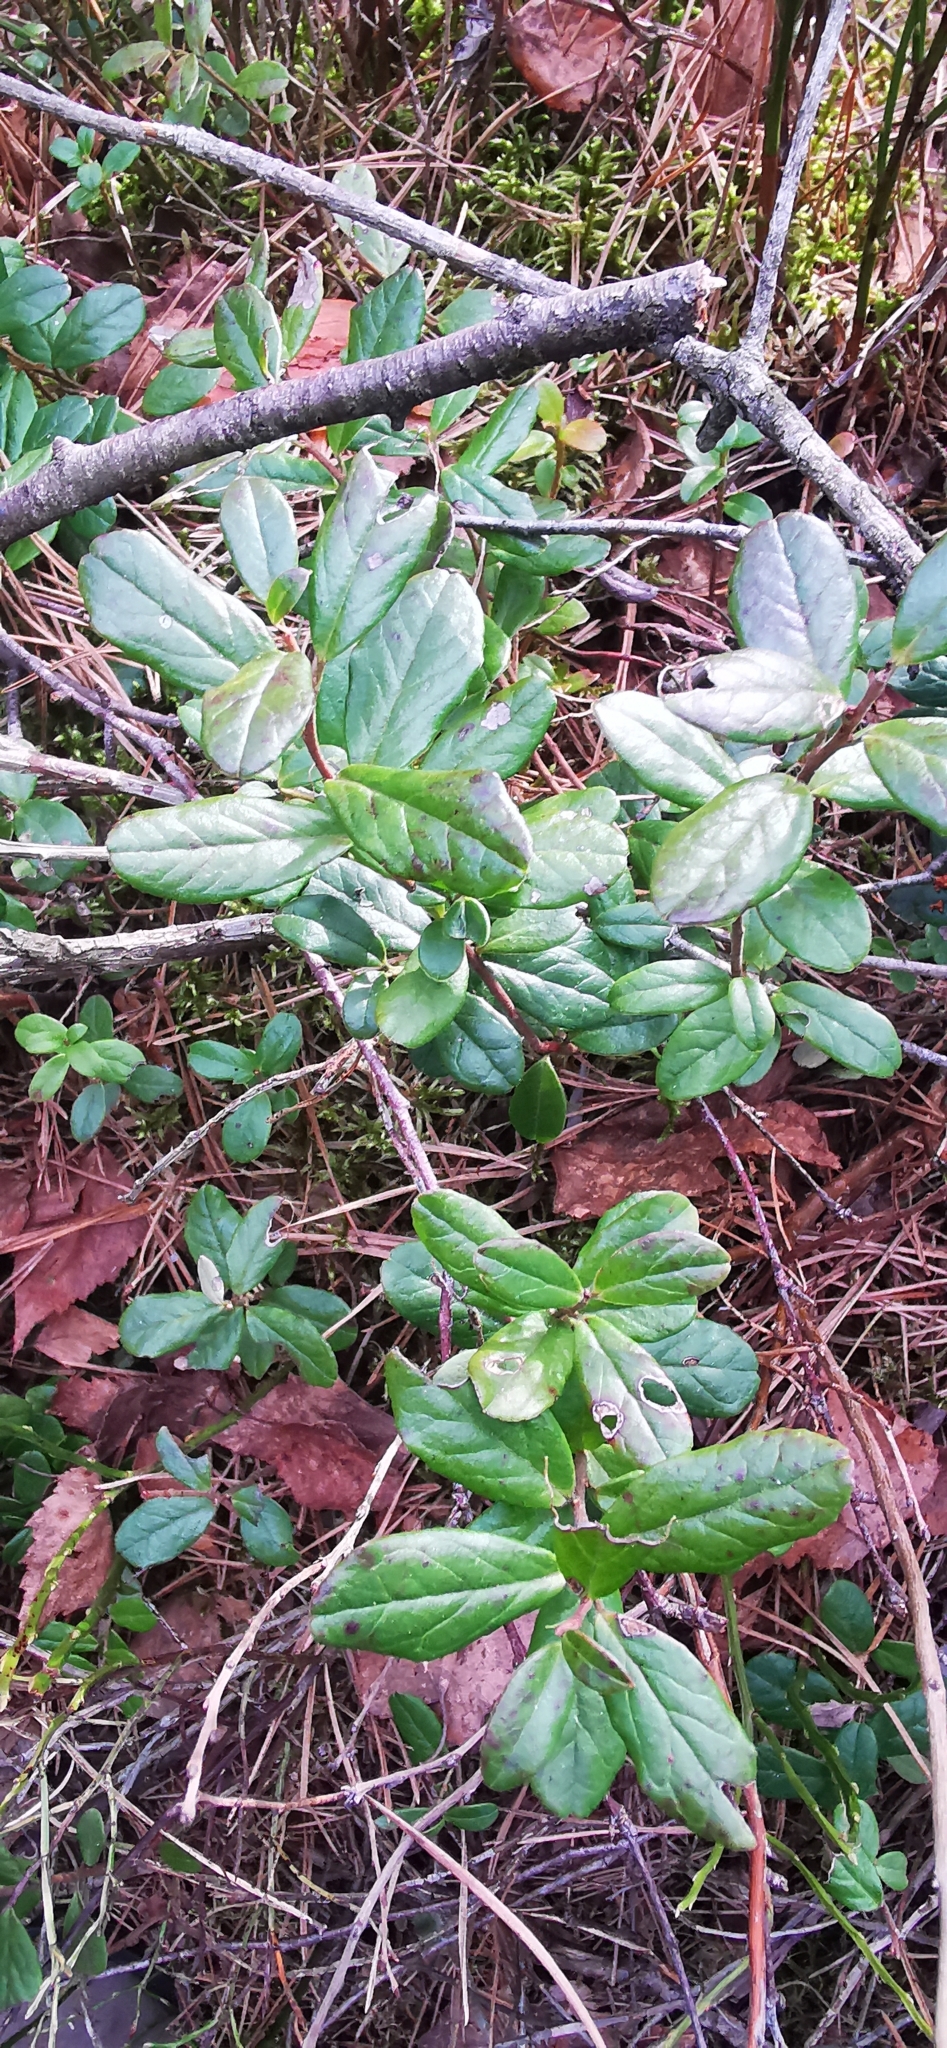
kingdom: Plantae
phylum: Tracheophyta
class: Magnoliopsida
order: Ericales
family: Ericaceae
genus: Vaccinium
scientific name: Vaccinium vitis-idaea
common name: Cowberry
